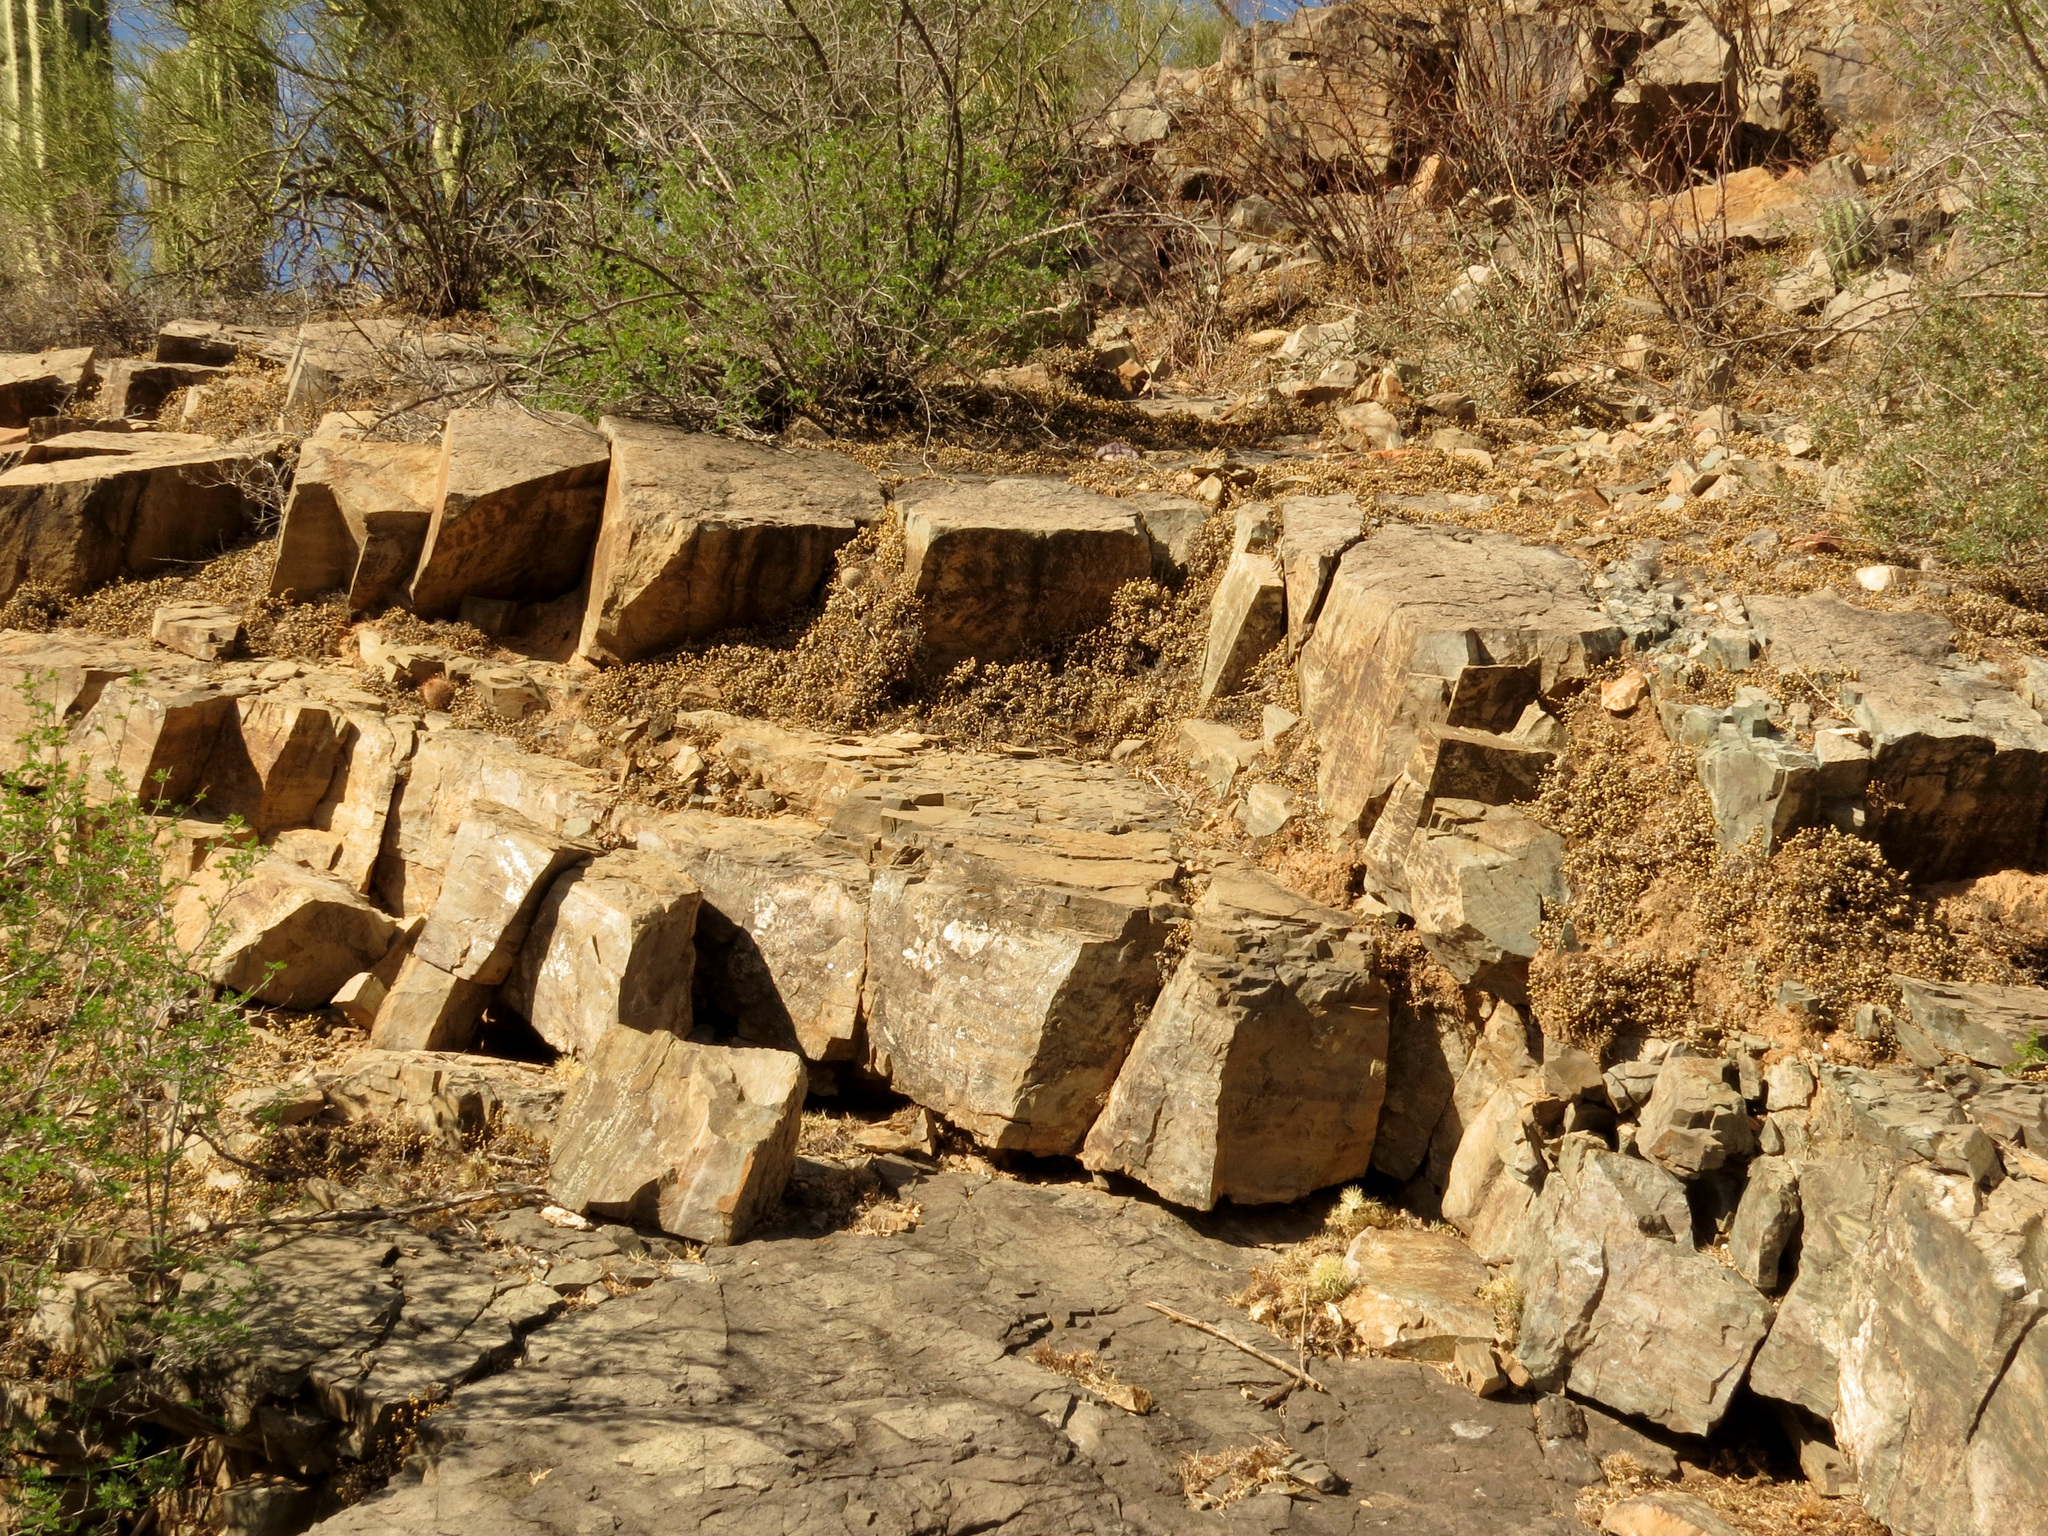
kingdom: Plantae
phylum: Tracheophyta
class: Lycopodiopsida
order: Selaginellales
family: Selaginellaceae
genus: Selaginella
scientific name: Selaginella arizonica
